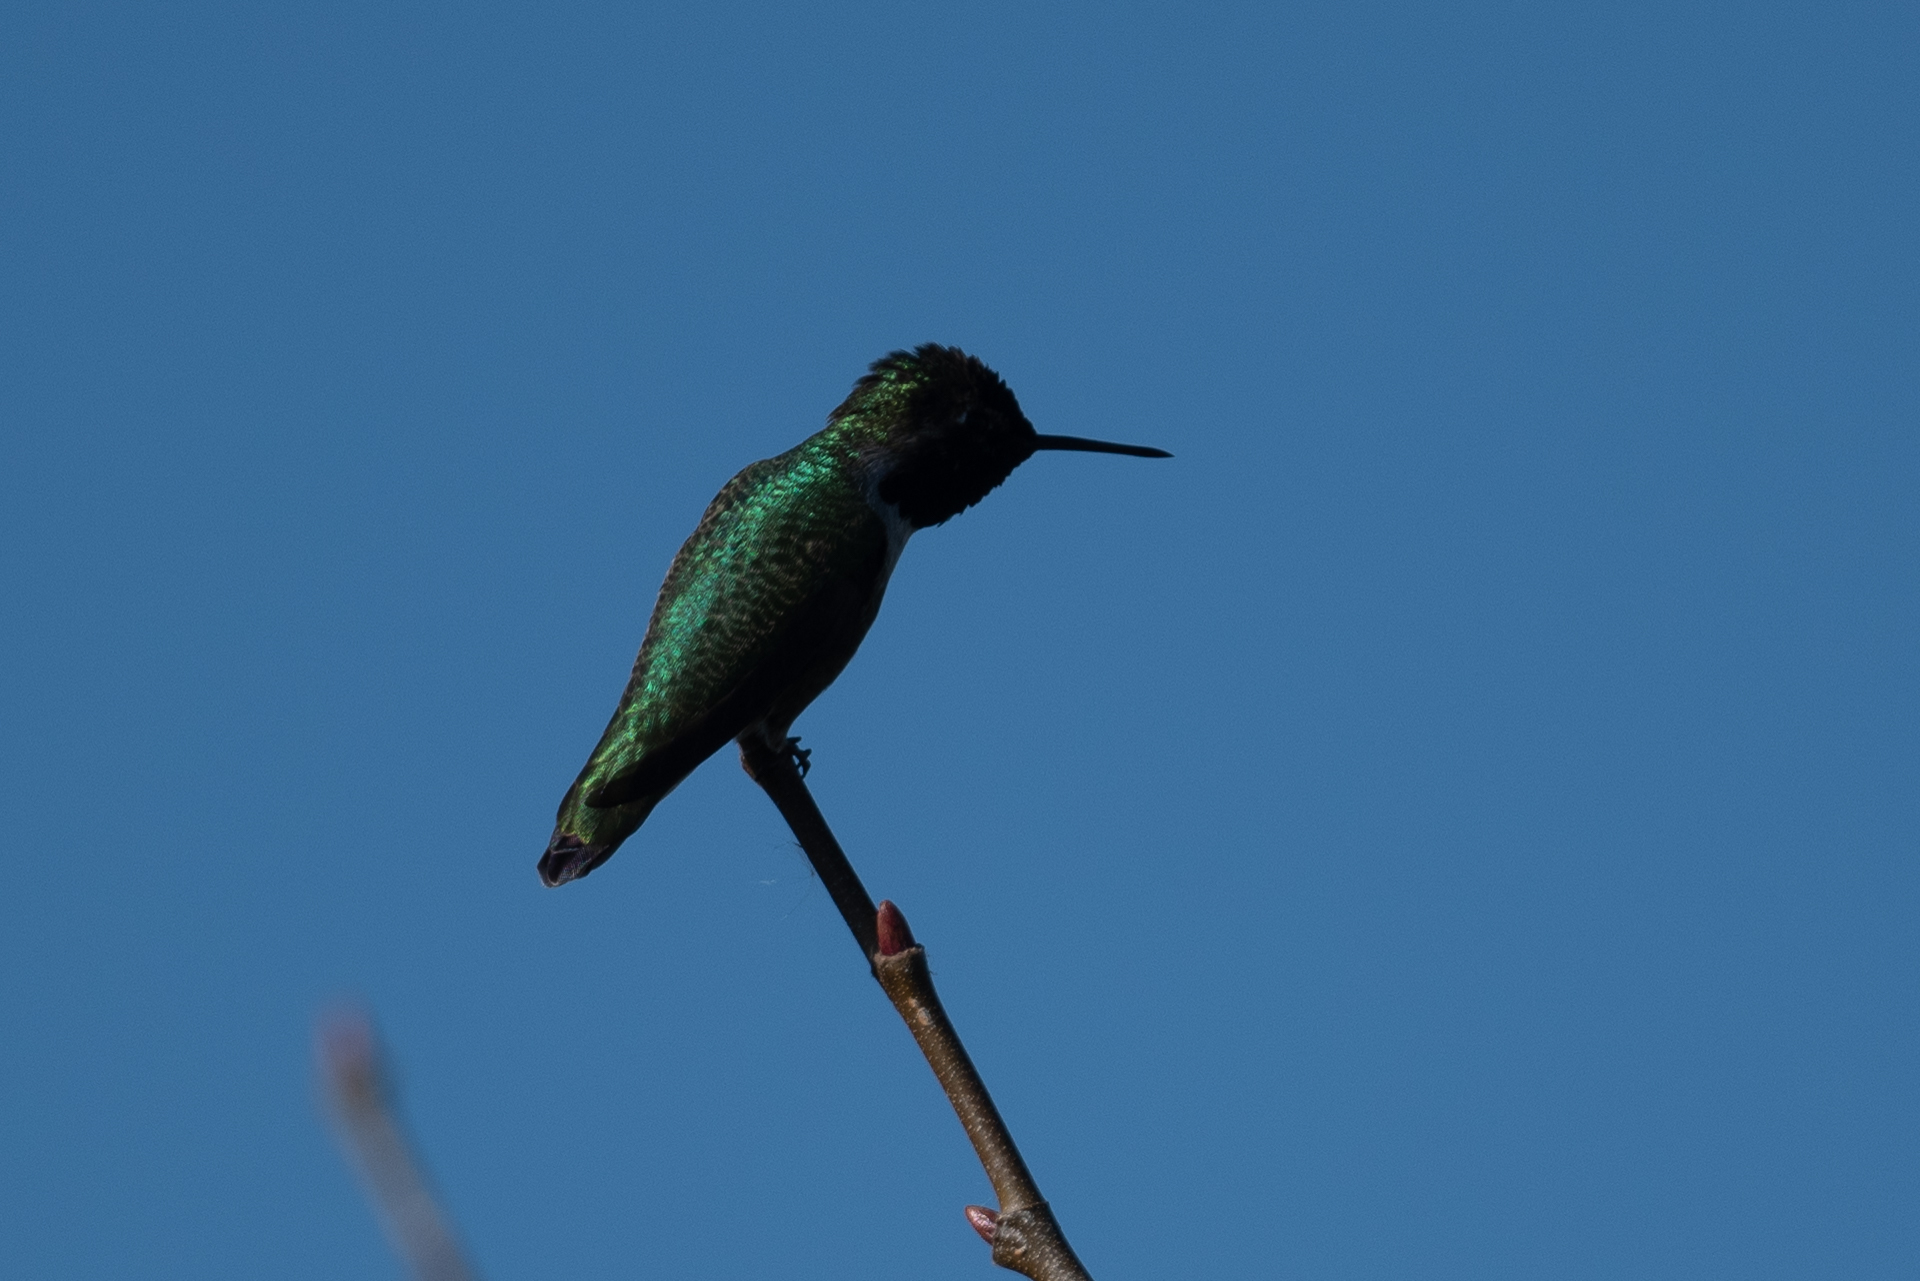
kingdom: Animalia
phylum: Chordata
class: Aves
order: Apodiformes
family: Trochilidae
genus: Calypte
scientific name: Calypte anna
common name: Anna's hummingbird
